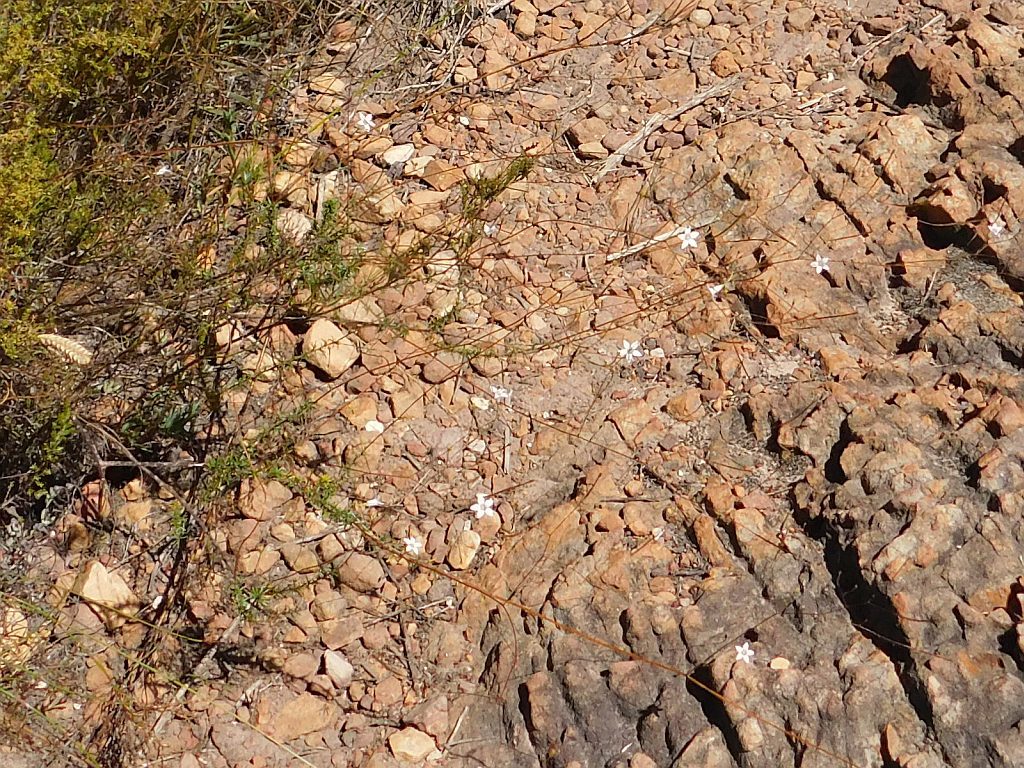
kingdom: Plantae
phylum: Tracheophyta
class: Magnoliopsida
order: Asterales
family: Campanulaceae
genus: Prismatocarpus
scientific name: Prismatocarpus brevilobus
